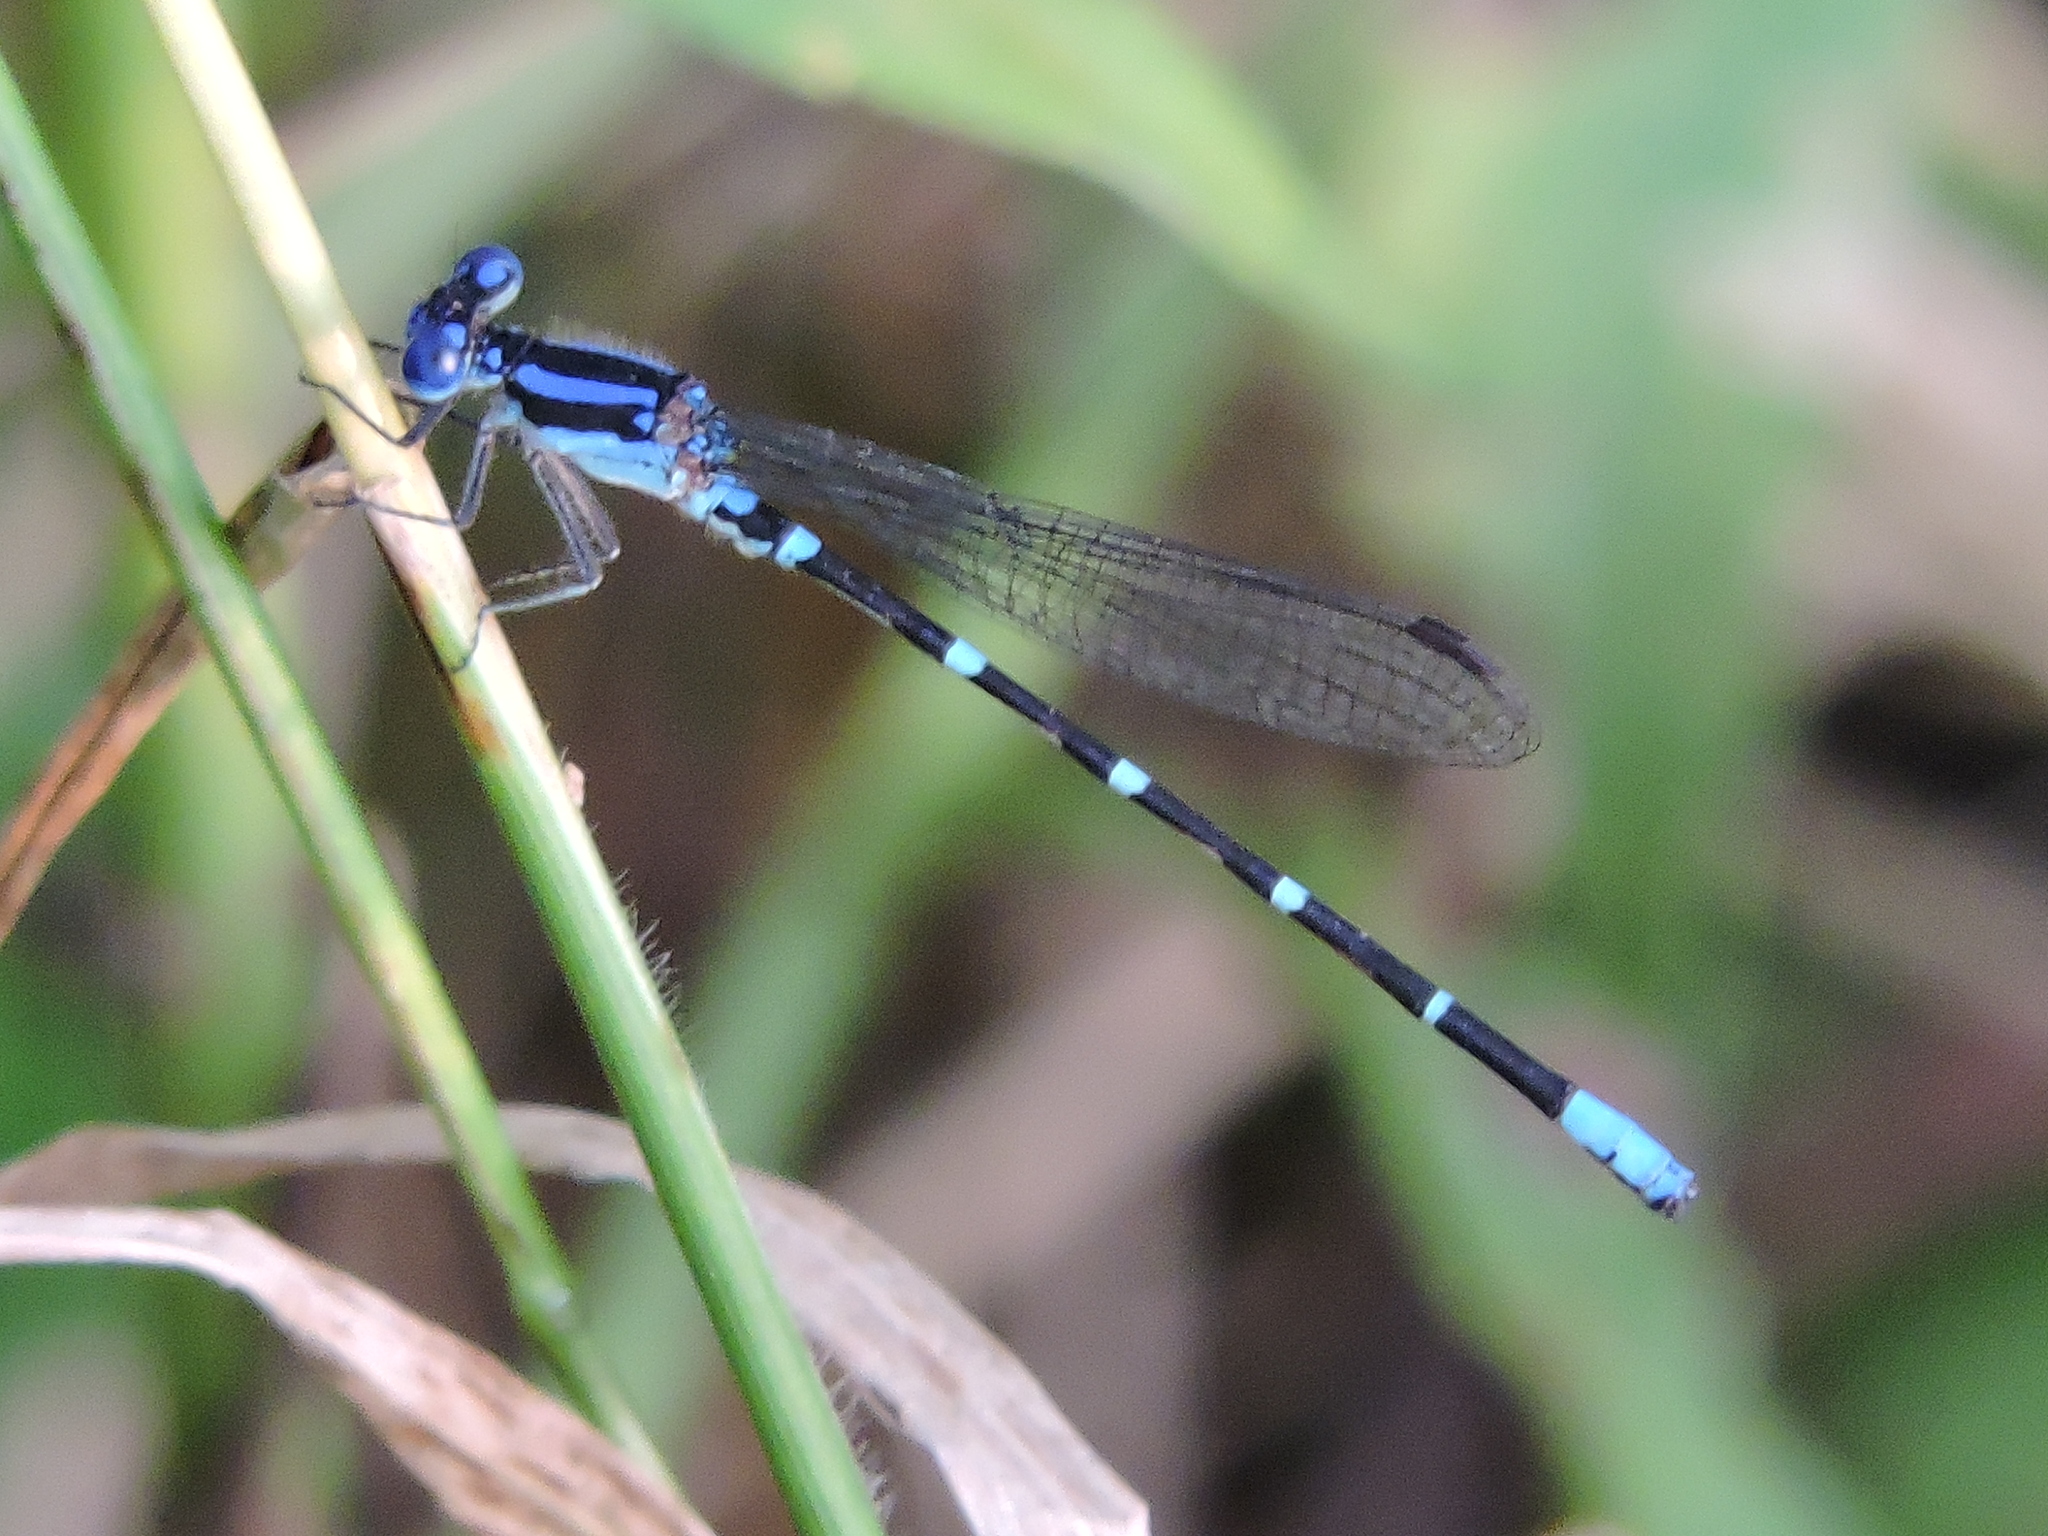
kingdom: Animalia
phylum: Arthropoda
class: Insecta
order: Odonata
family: Coenagrionidae
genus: Argia
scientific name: Argia sedula
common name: Blue-ringed dancer
